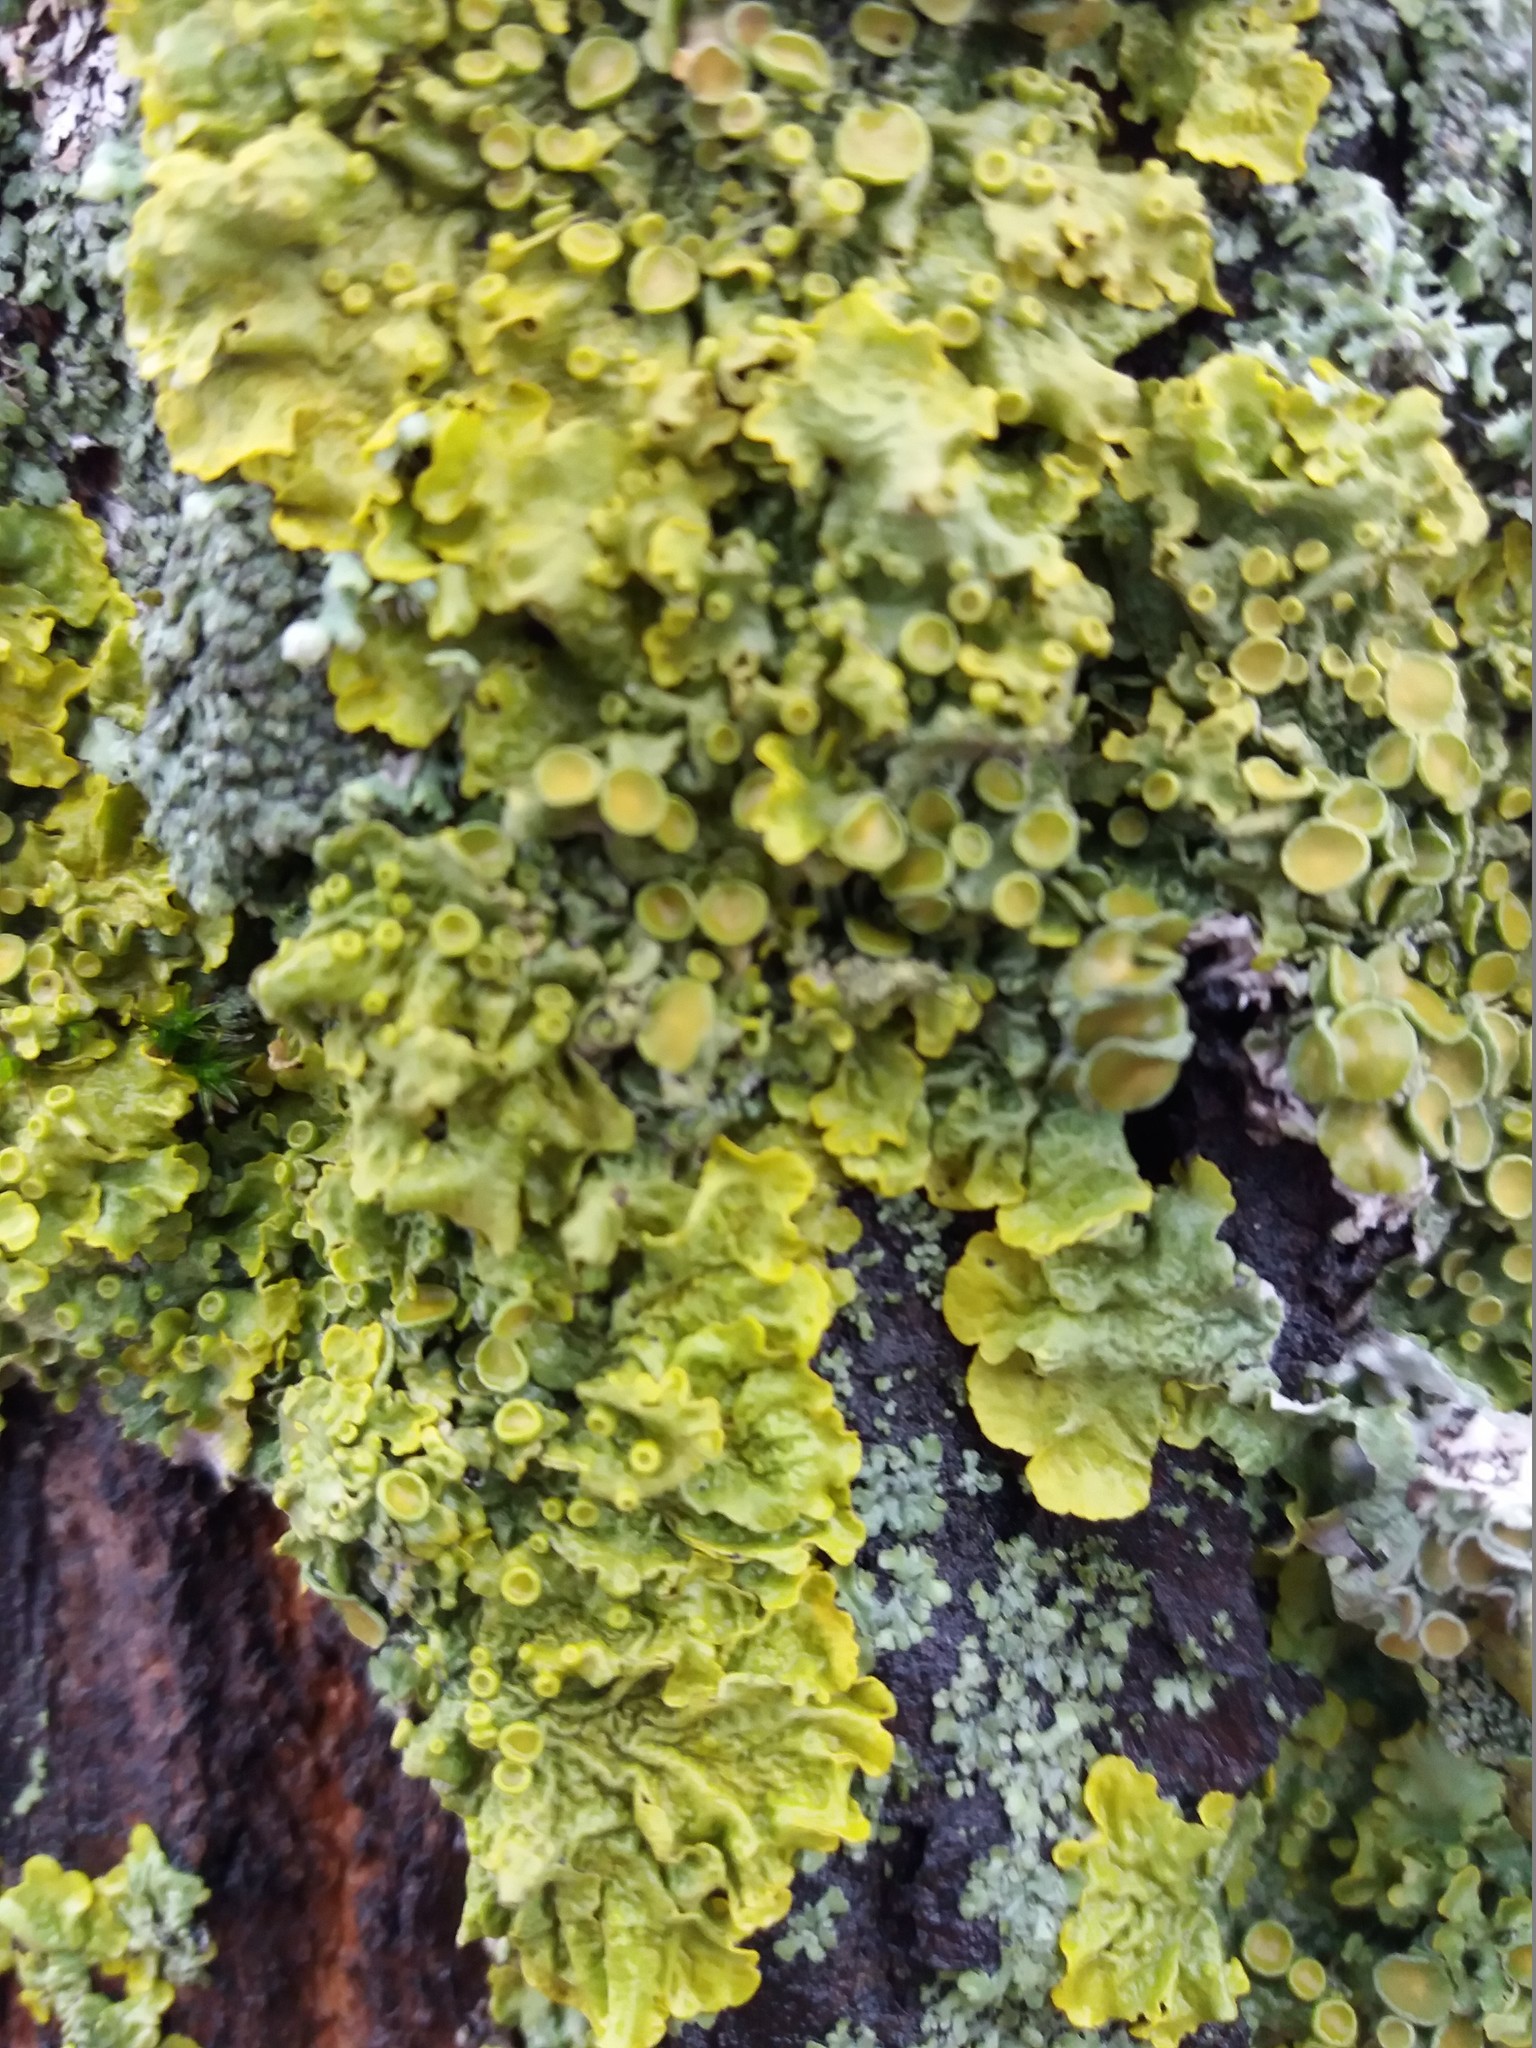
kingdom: Fungi
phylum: Ascomycota
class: Lecanoromycetes
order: Teloschistales
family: Teloschistaceae
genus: Xanthoria
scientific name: Xanthoria parietina
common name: Common orange lichen
